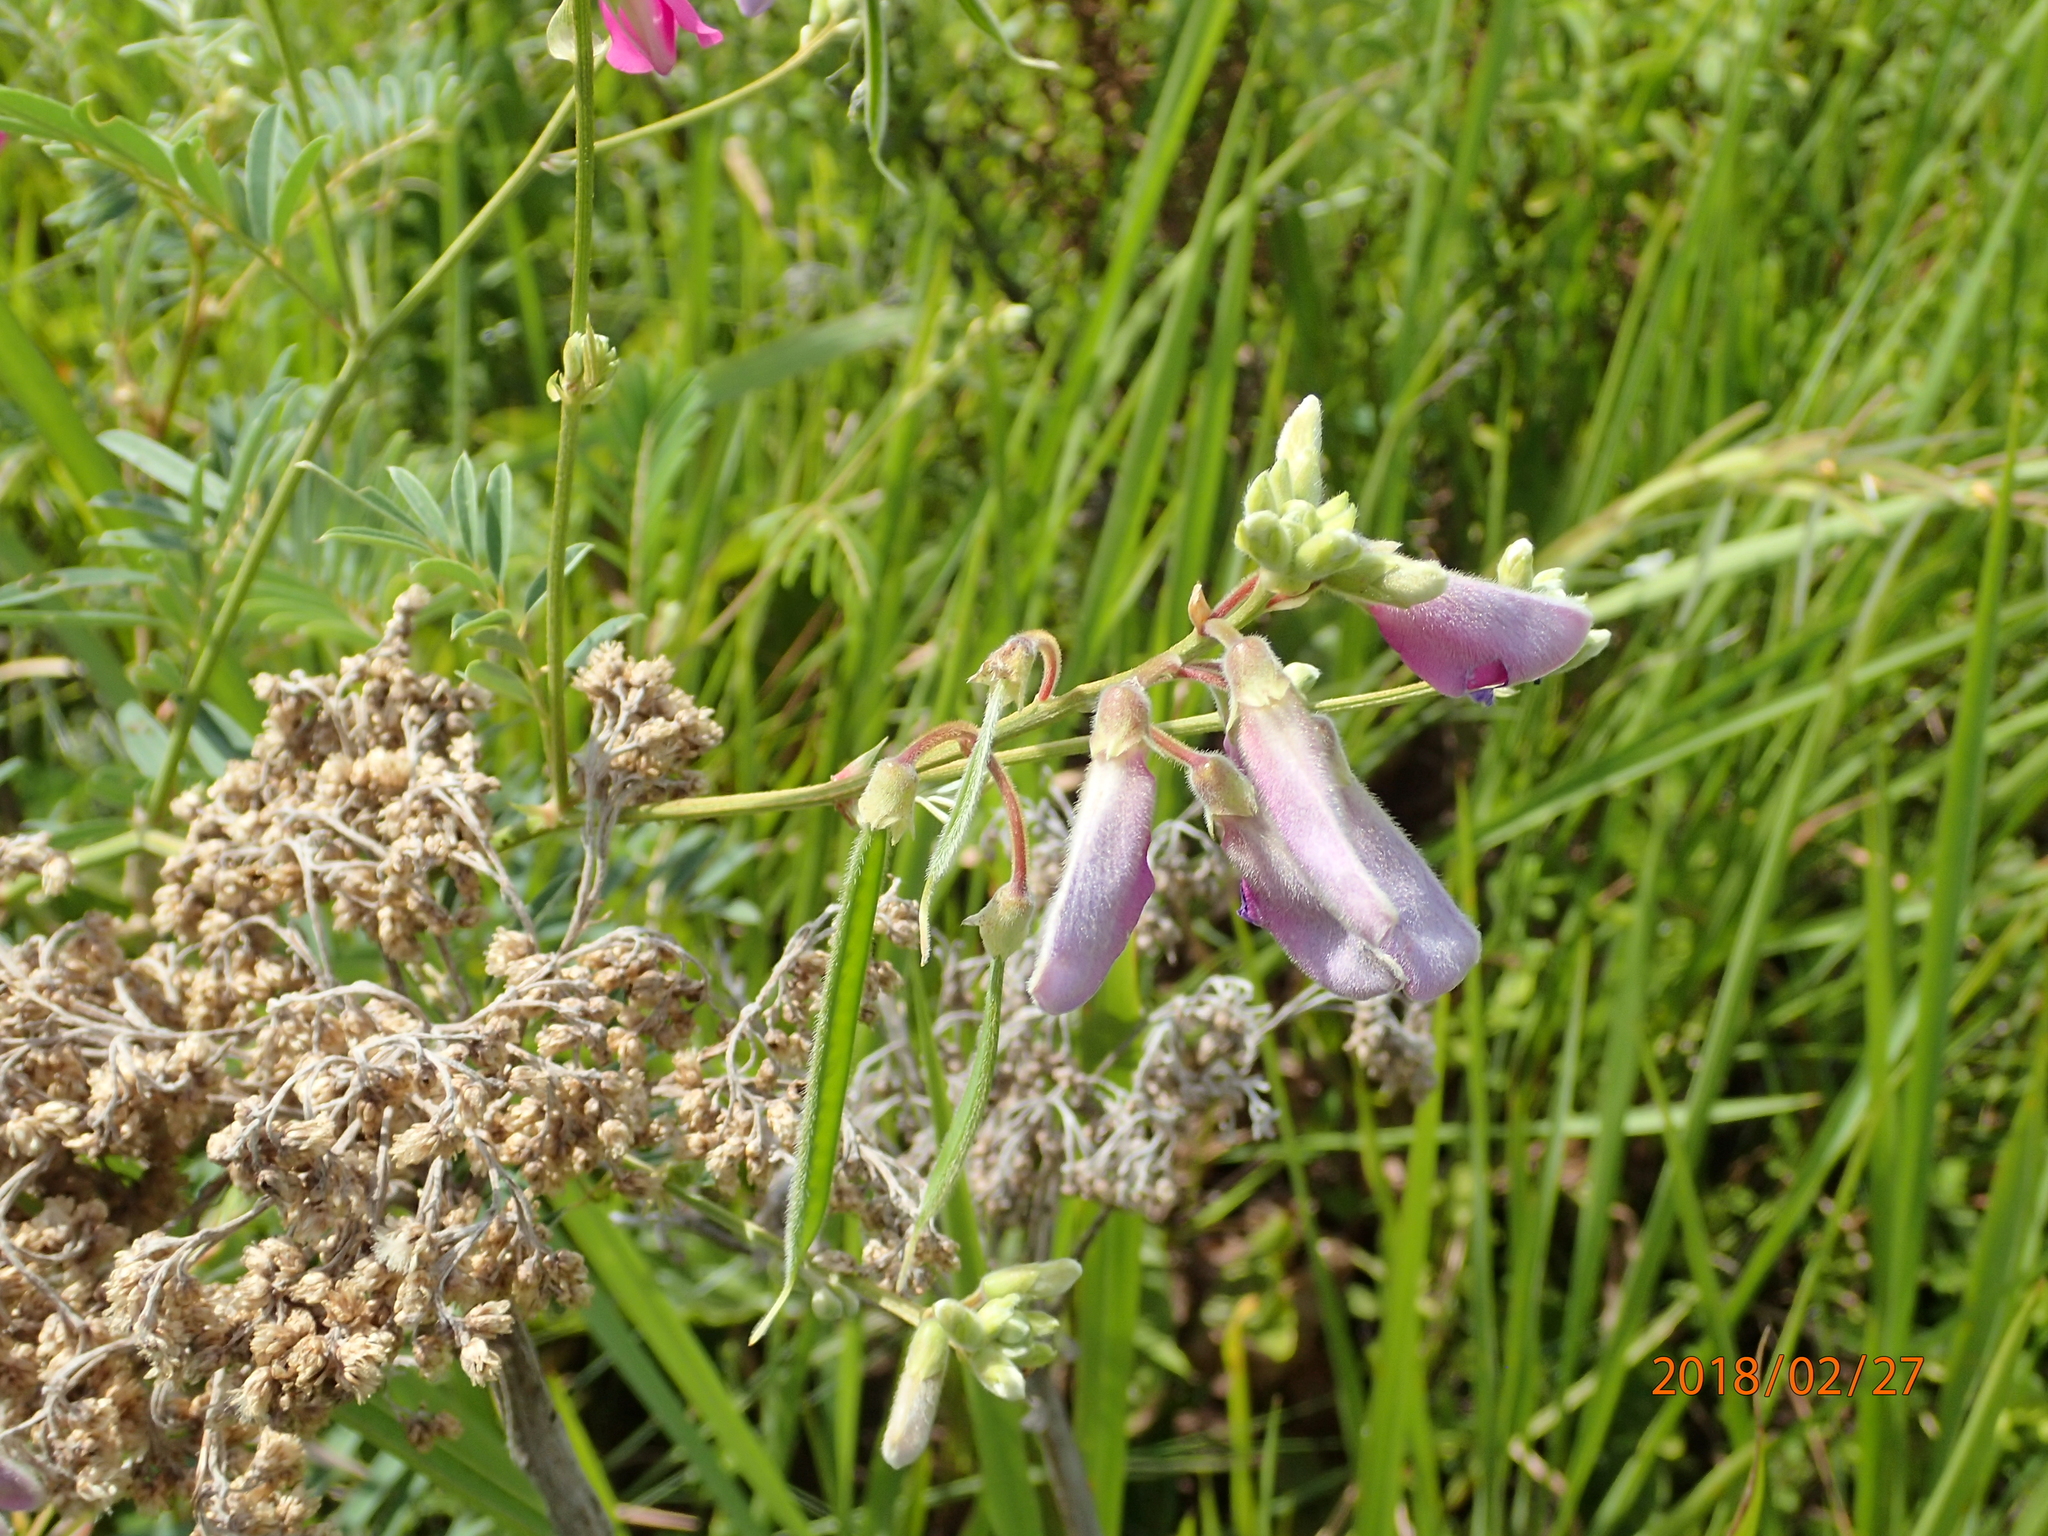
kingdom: Plantae
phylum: Tracheophyta
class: Magnoliopsida
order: Fabales
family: Fabaceae
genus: Tephrosia
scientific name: Tephrosia grandiflora
